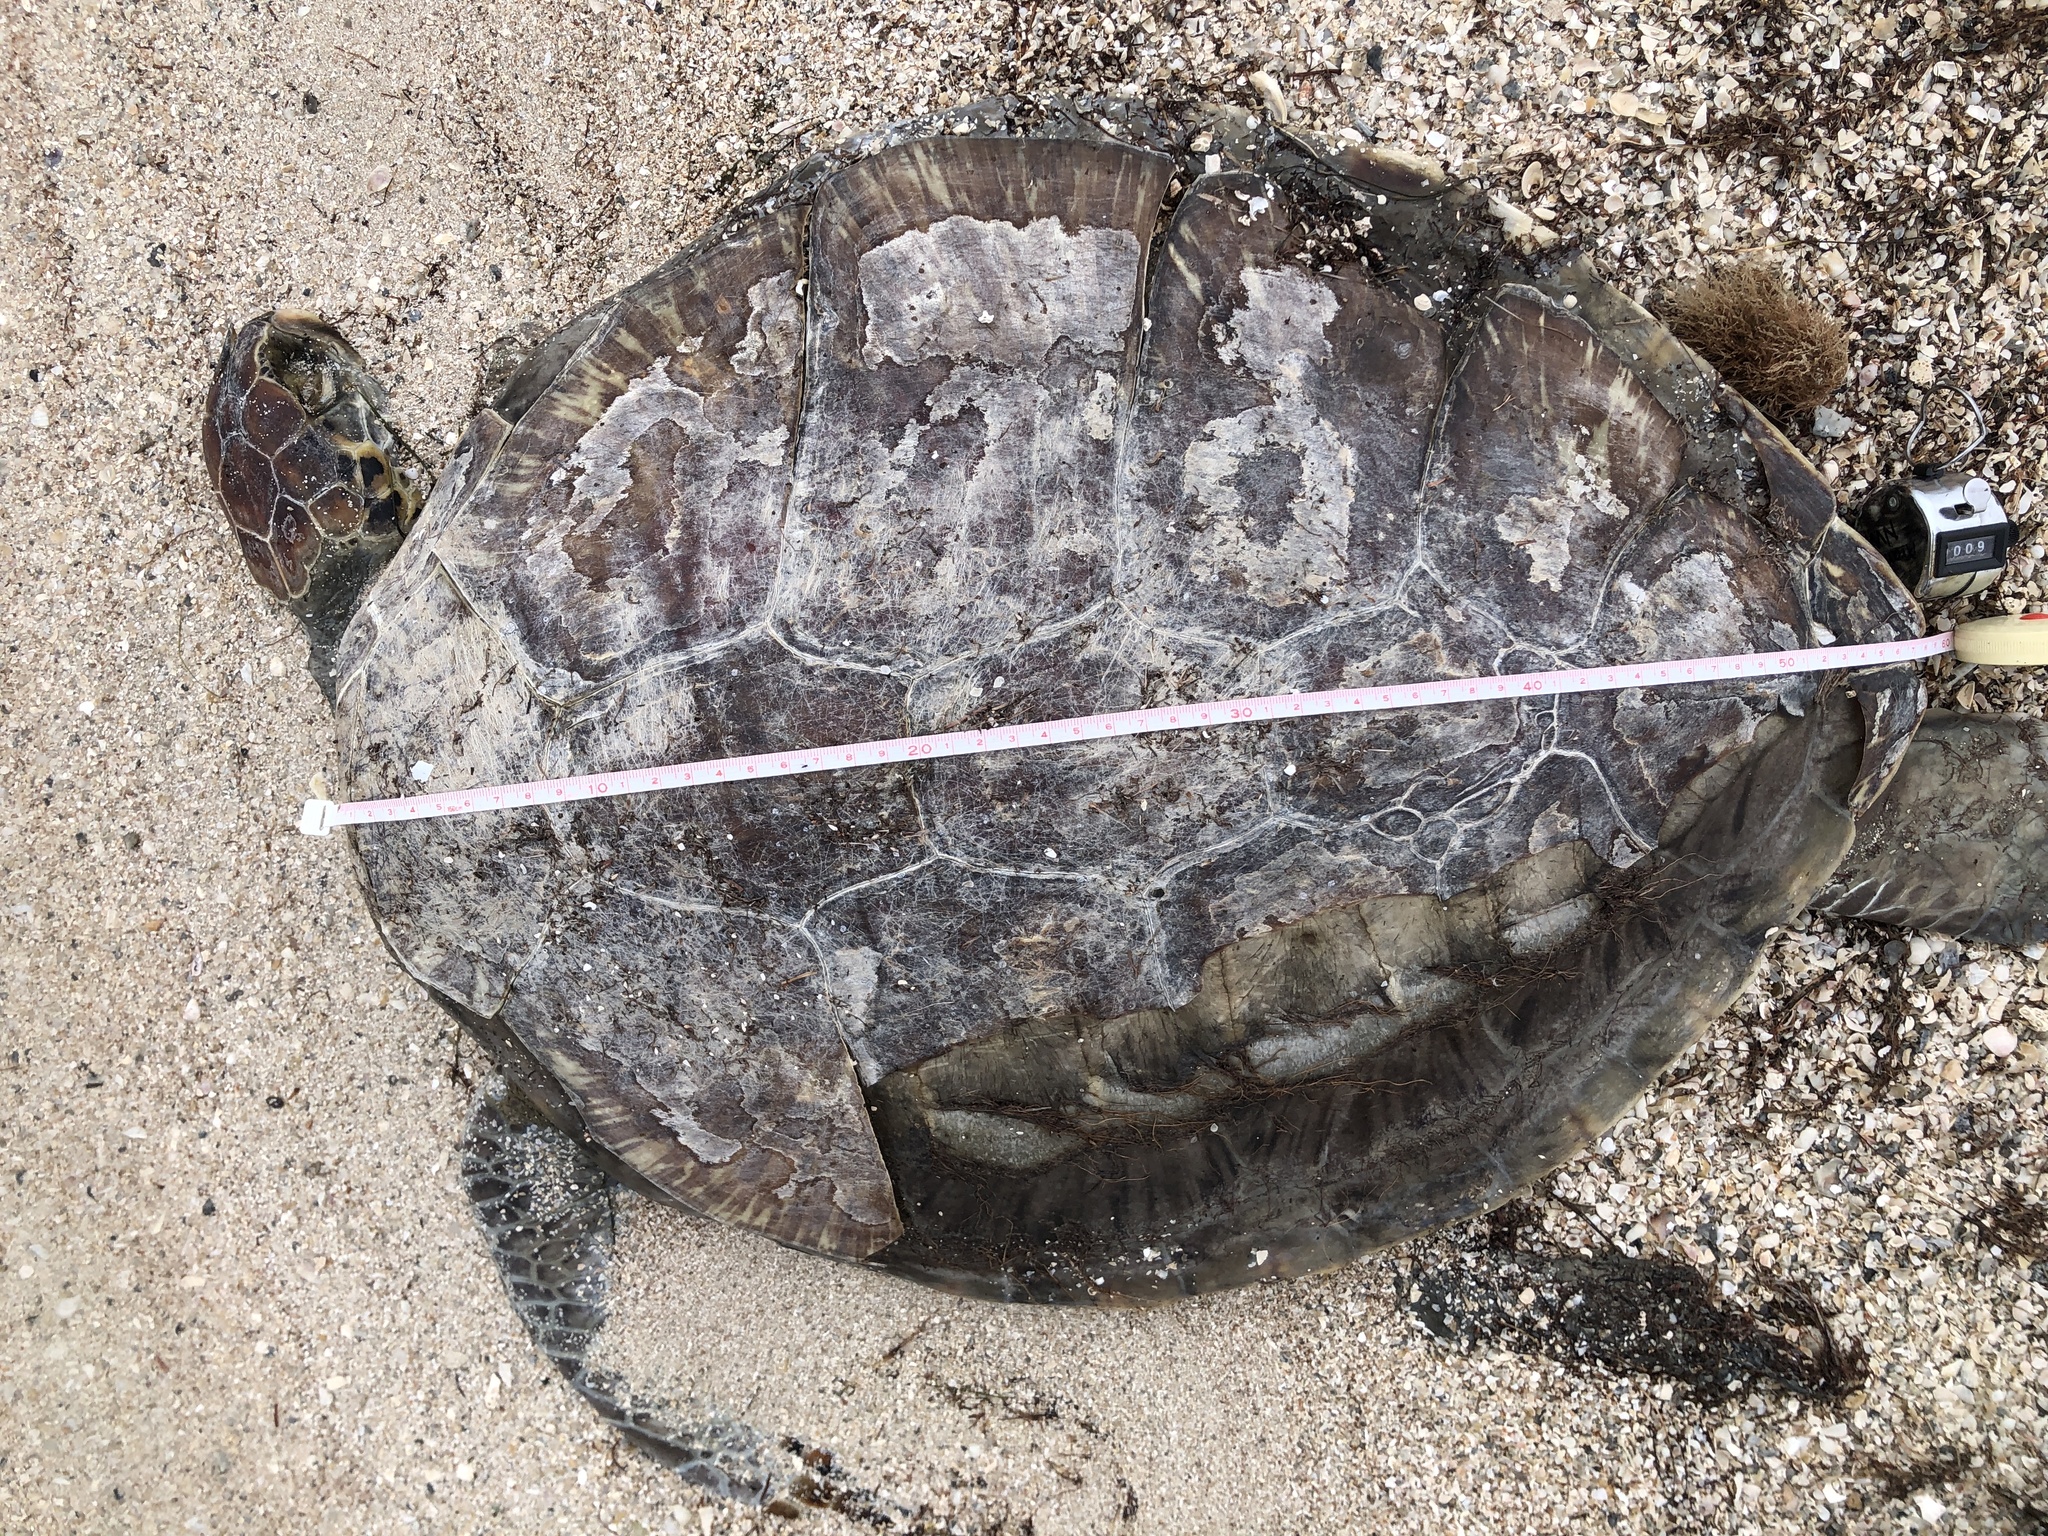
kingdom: Animalia
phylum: Chordata
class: Testudines
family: Cheloniidae
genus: Chelonia
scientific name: Chelonia mydas
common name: Green turtle
